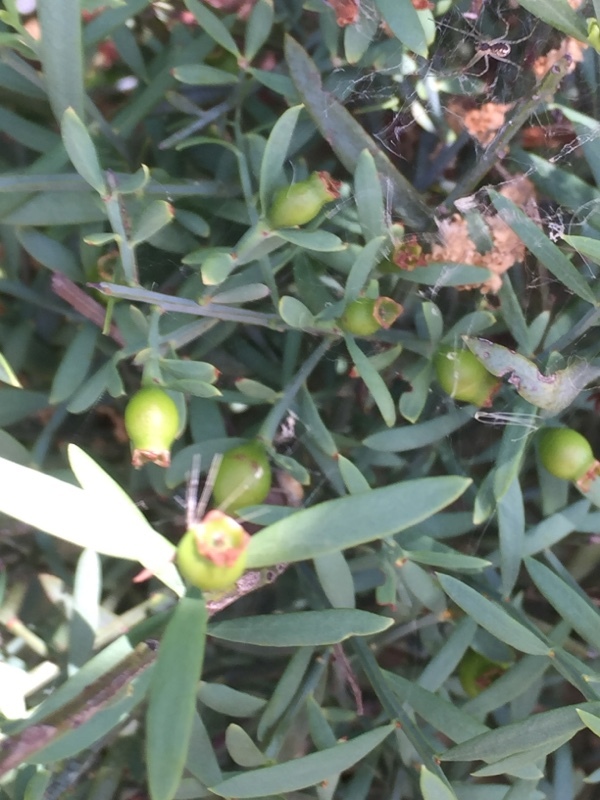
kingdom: Plantae
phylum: Tracheophyta
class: Magnoliopsida
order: Santalales
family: Santalaceae
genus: Osyris
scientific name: Osyris alba
